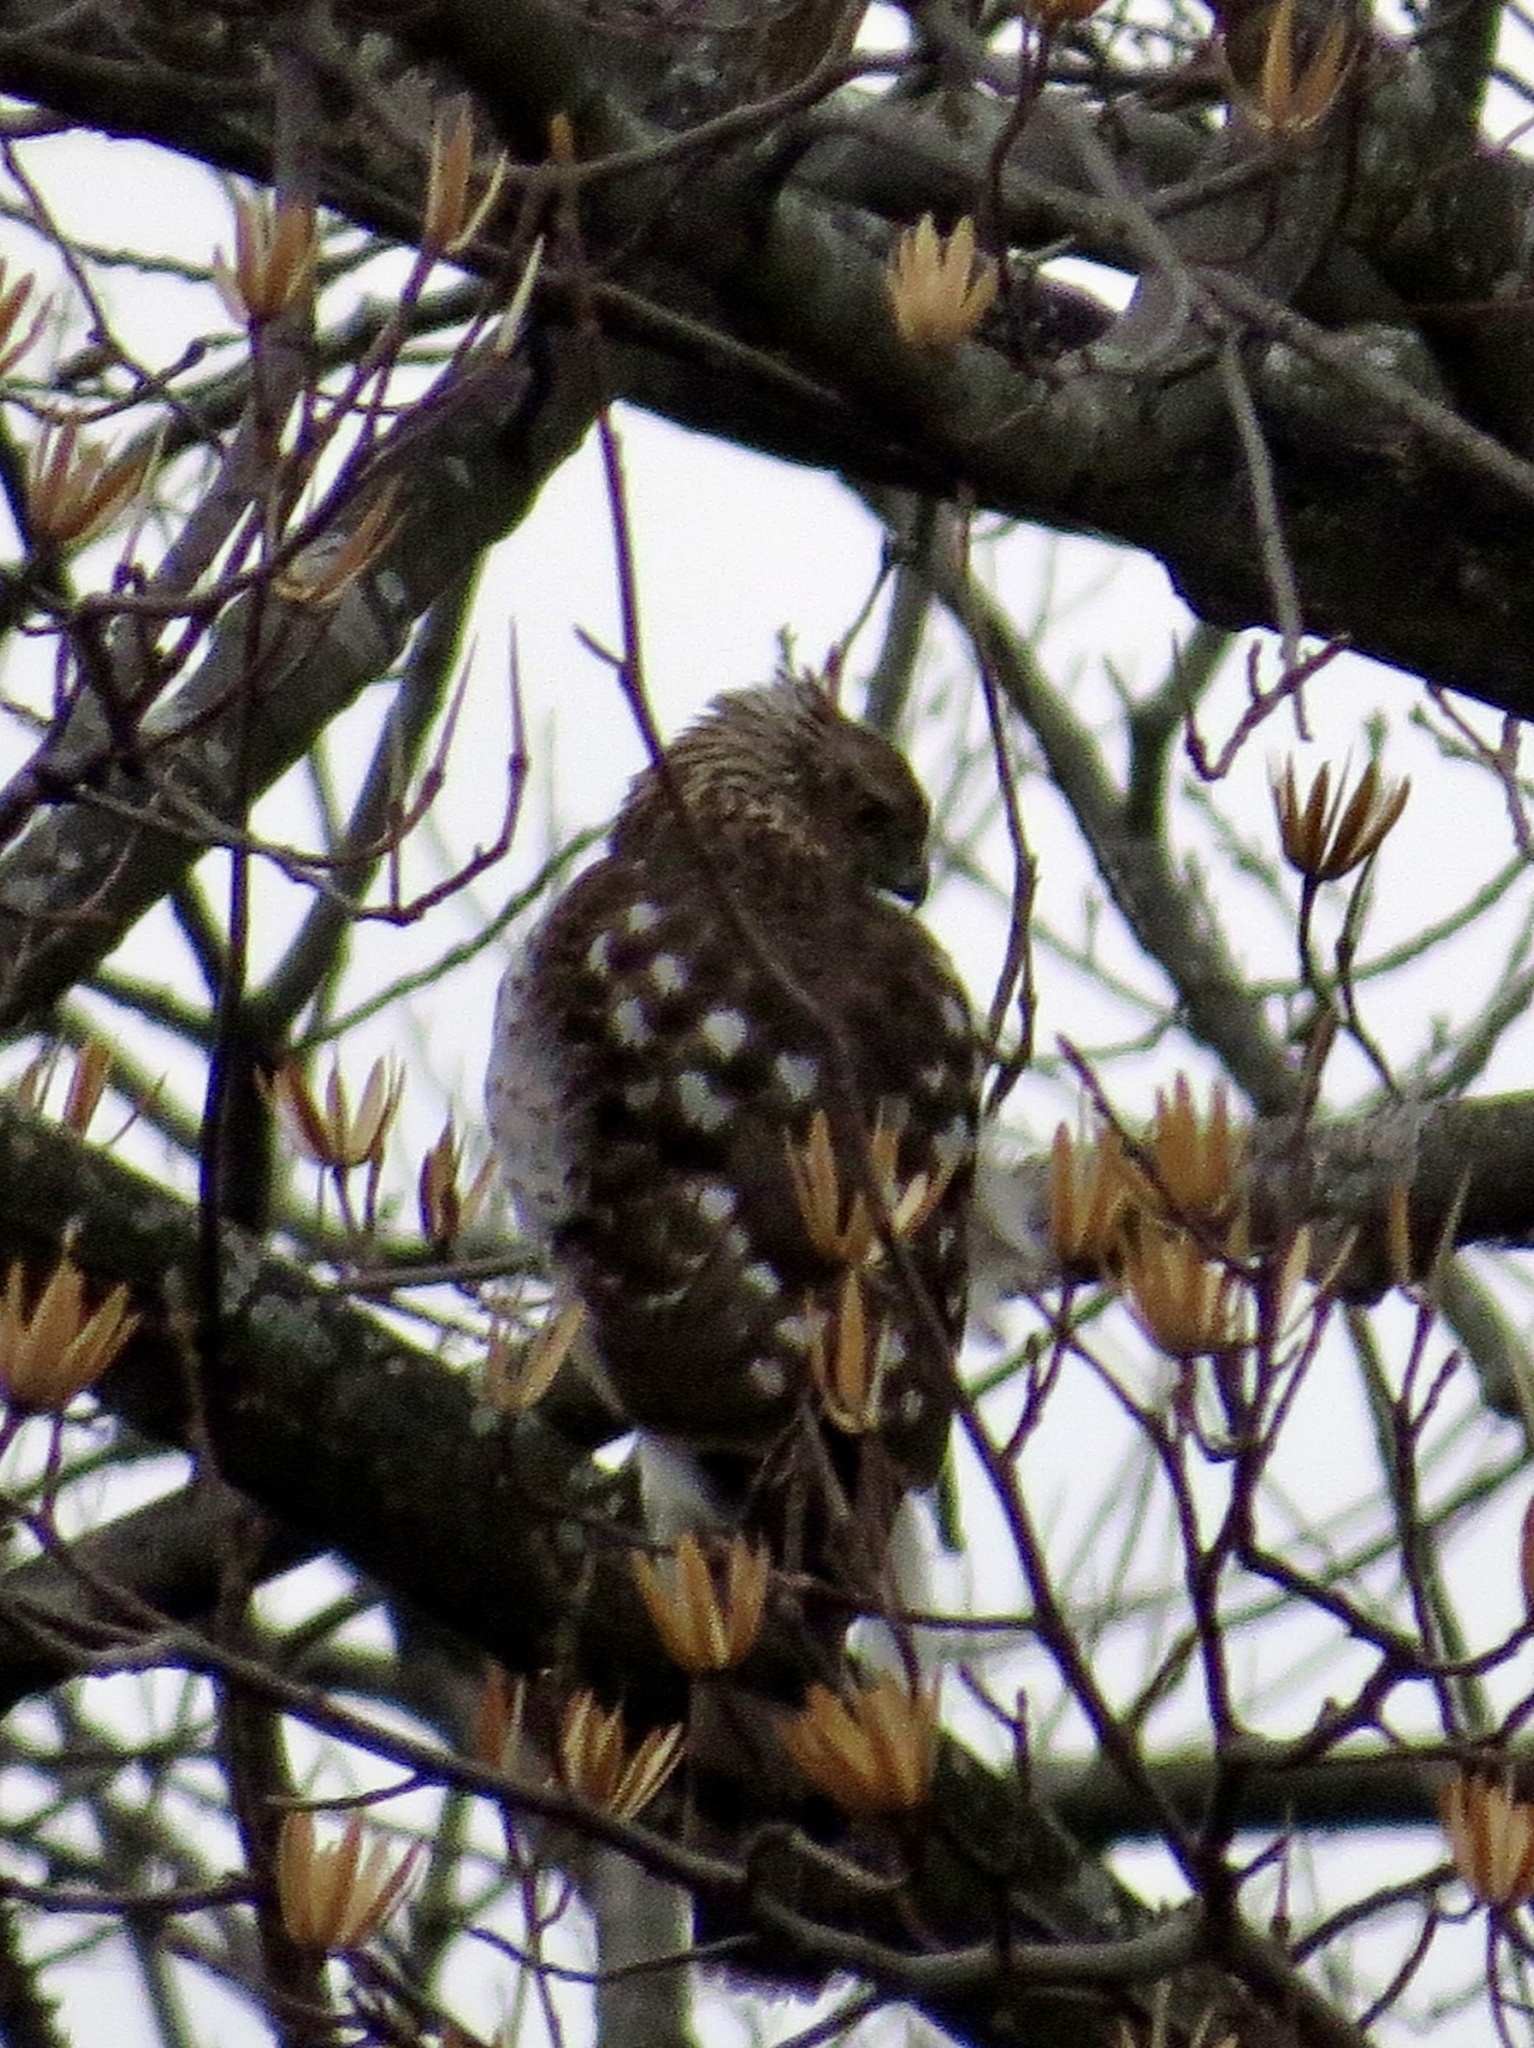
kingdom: Animalia
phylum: Chordata
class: Aves
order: Accipitriformes
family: Accipitridae
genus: Accipiter
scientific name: Accipiter cooperii
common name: Cooper's hawk
